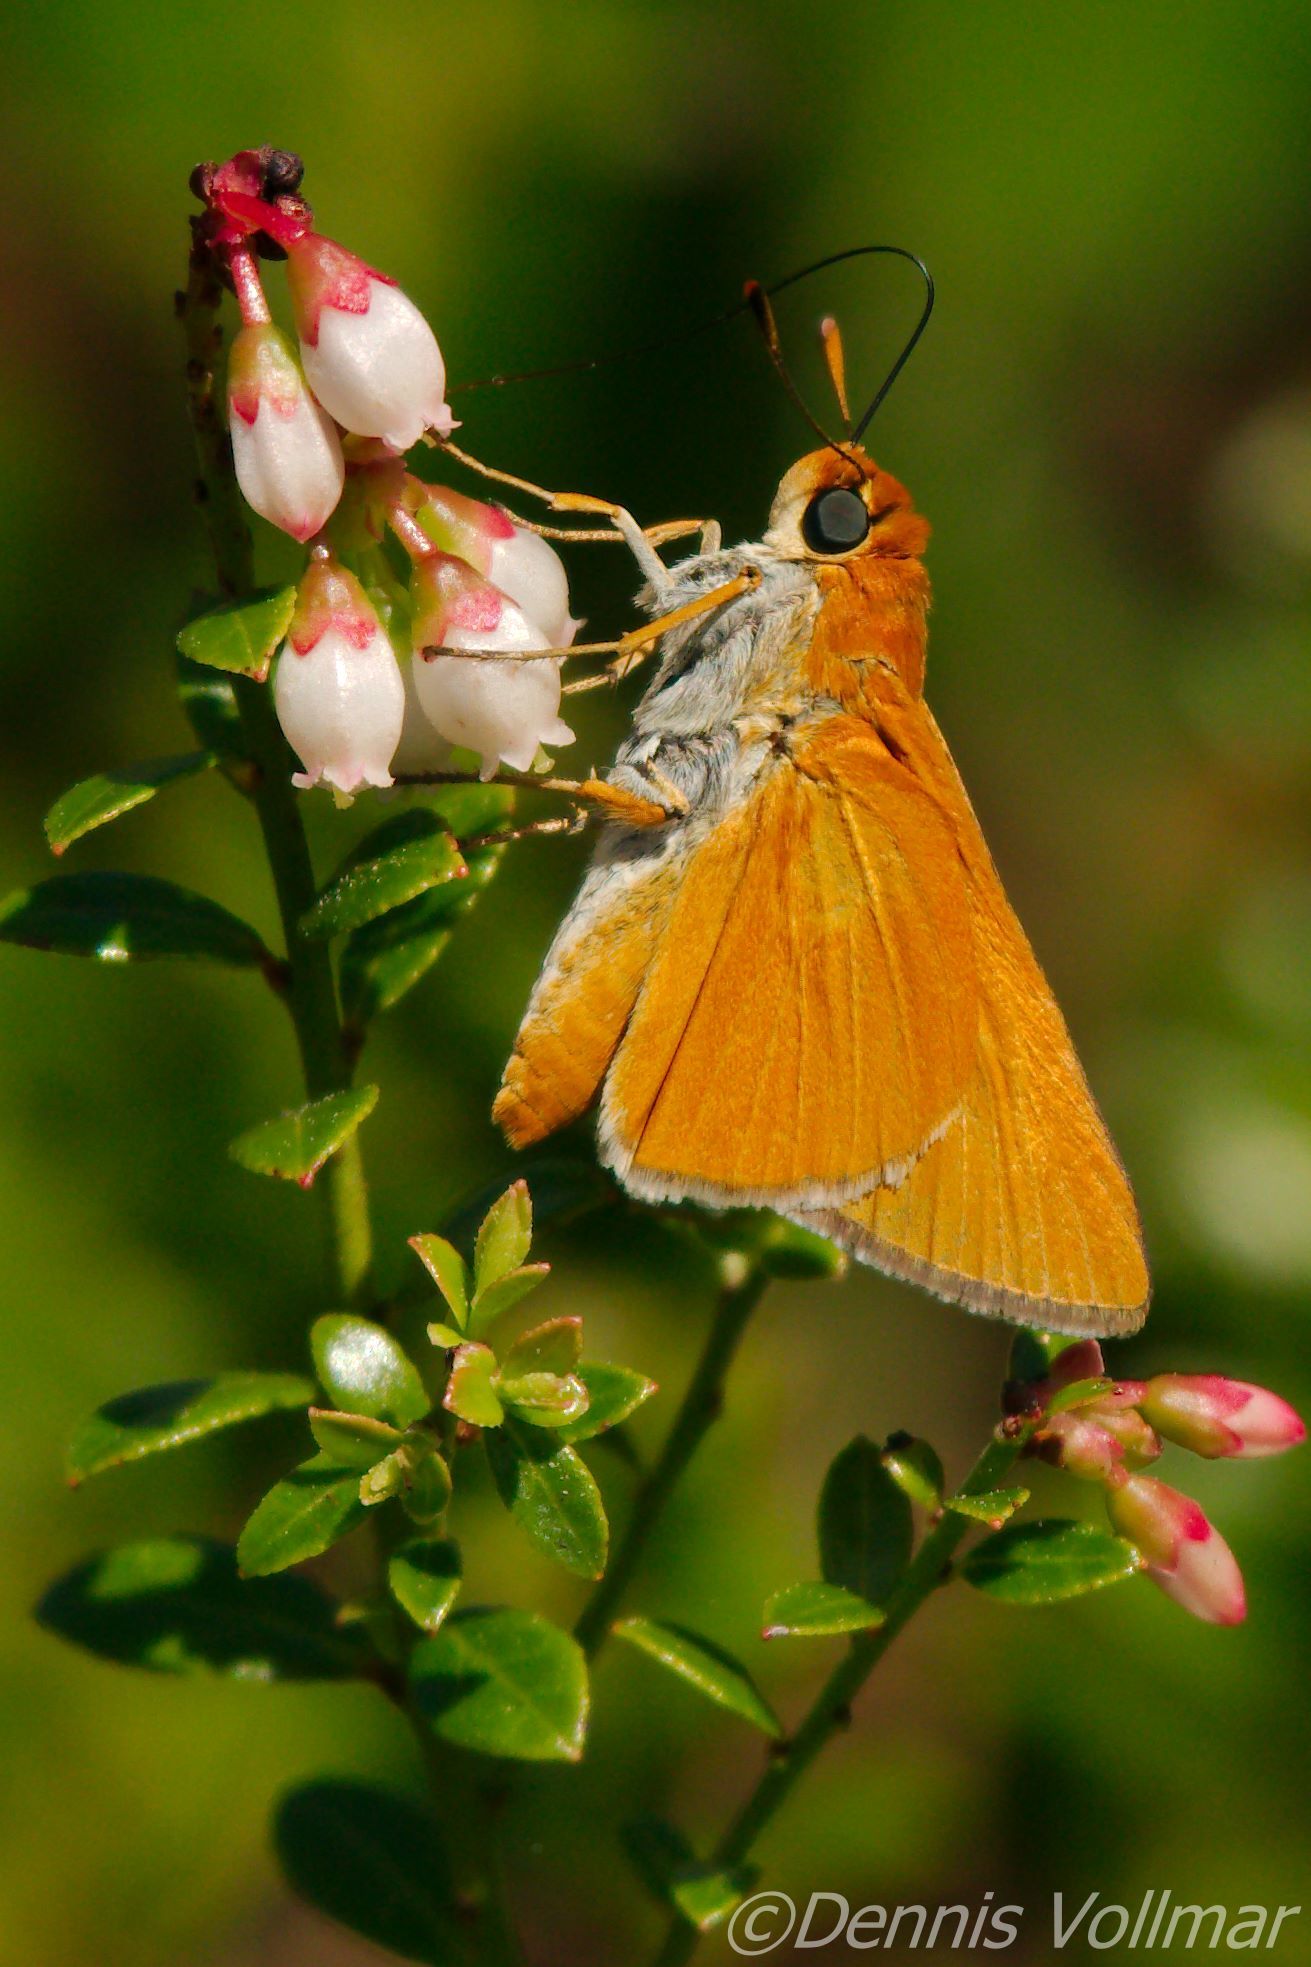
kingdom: Animalia
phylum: Arthropoda
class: Insecta
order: Lepidoptera
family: Hesperiidae
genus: Euphyes
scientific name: Euphyes arpa
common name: Palmetto skipper
